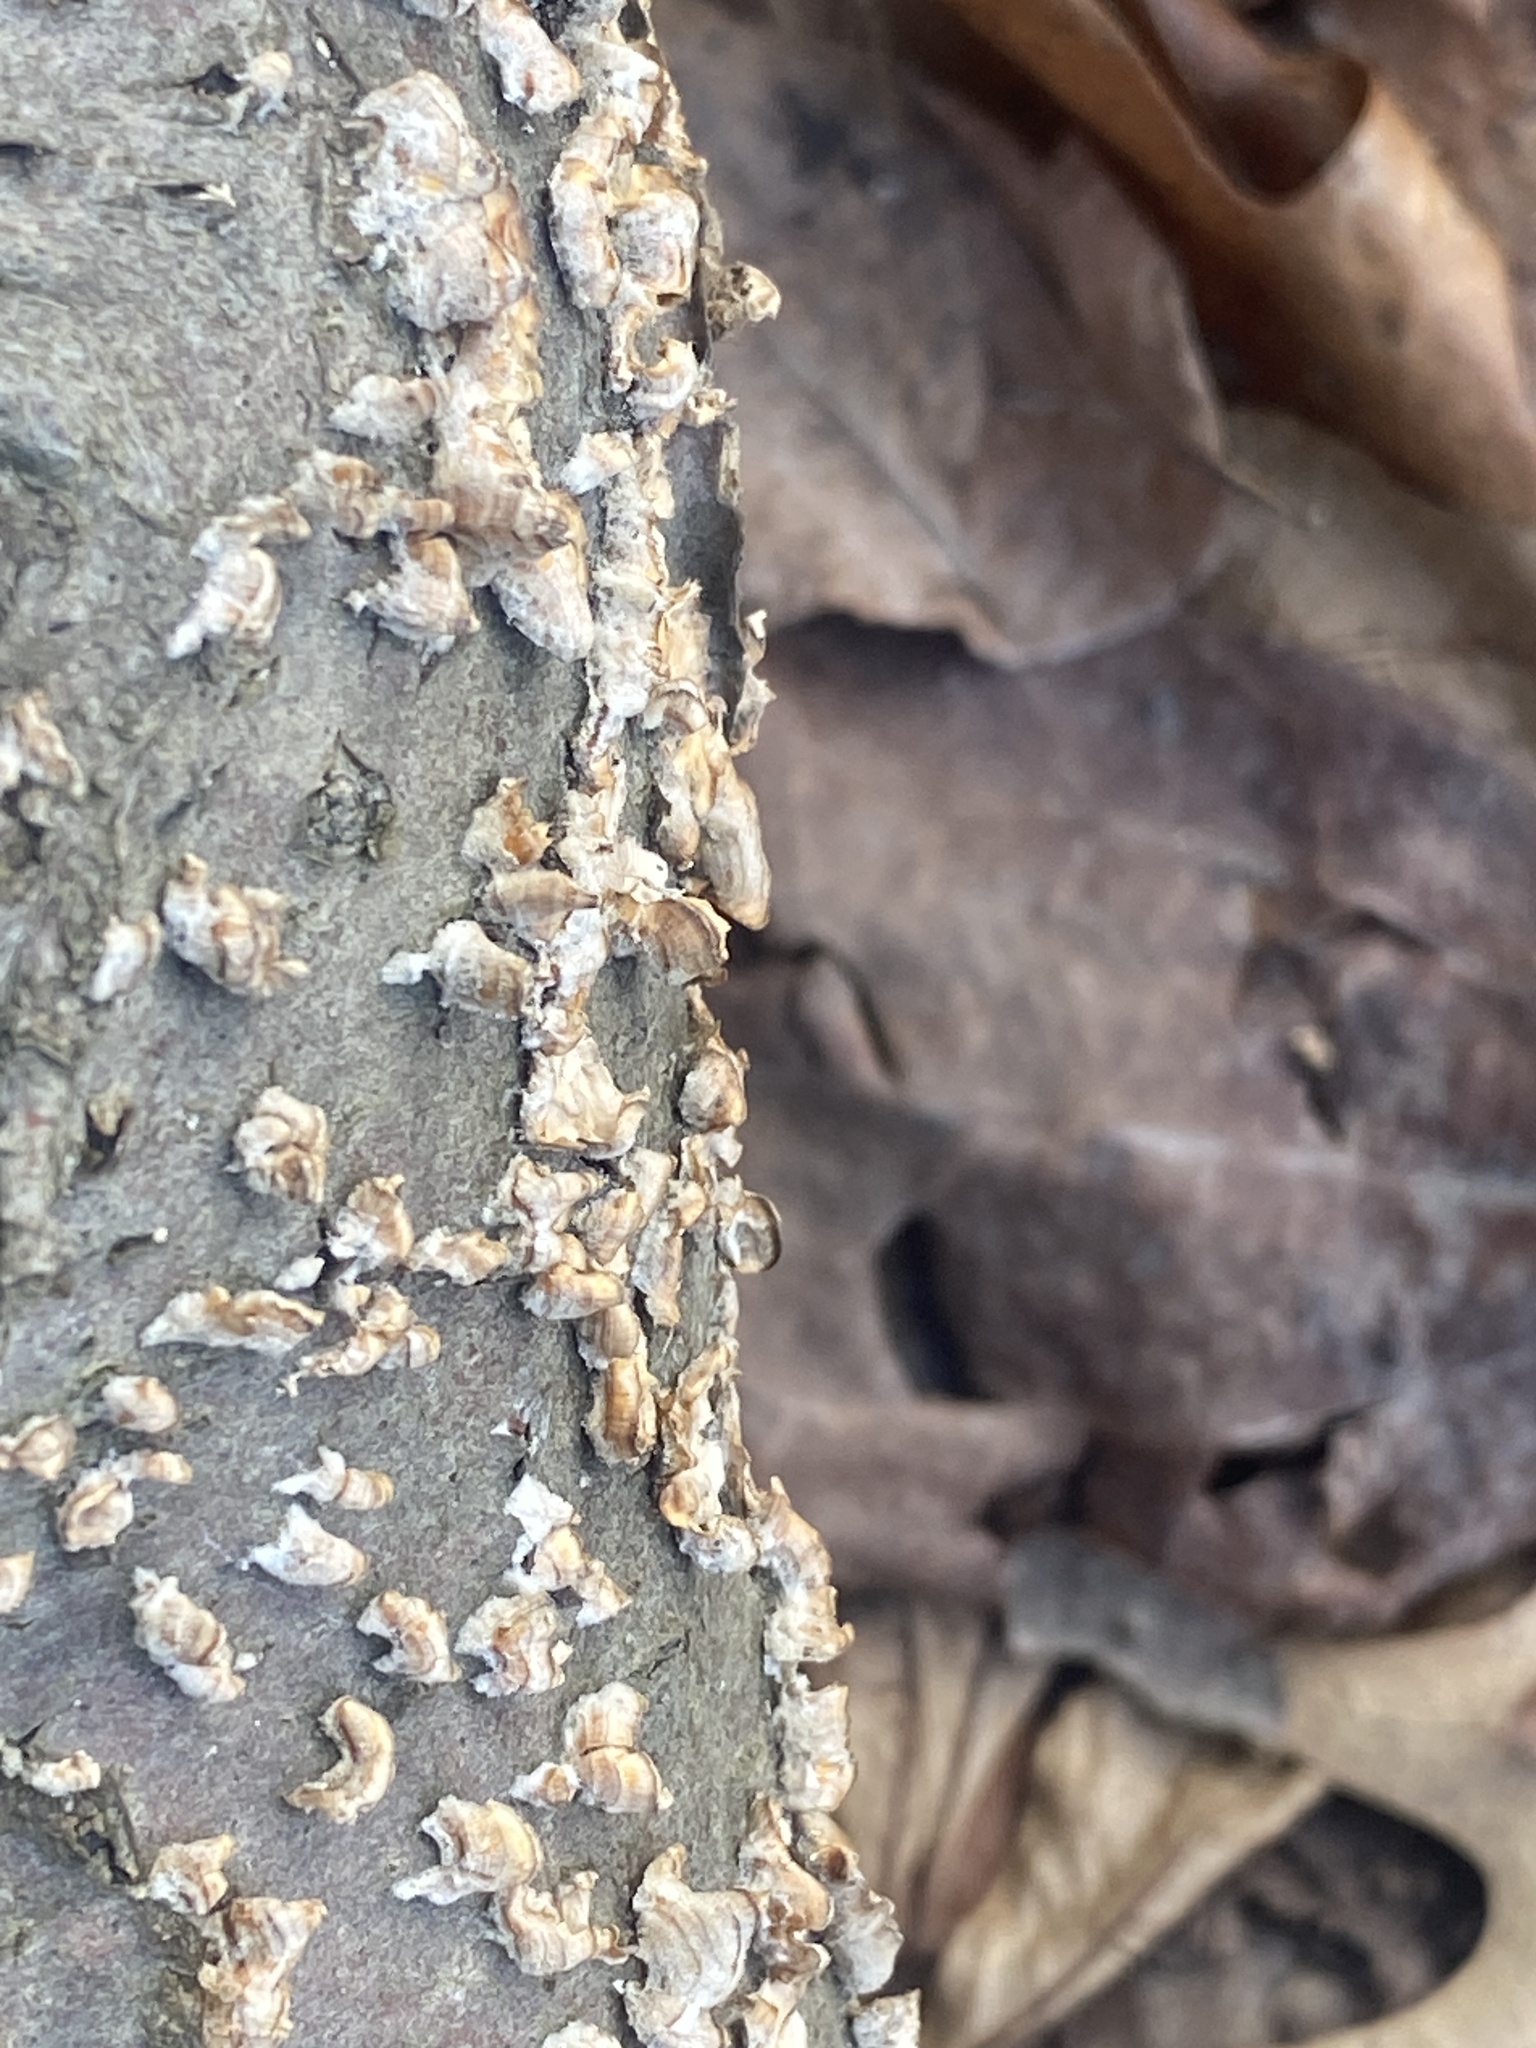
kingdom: Fungi
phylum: Basidiomycota
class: Agaricomycetes
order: Russulales
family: Stereaceae
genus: Stereum
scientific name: Stereum complicatum
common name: Crowded parchment
